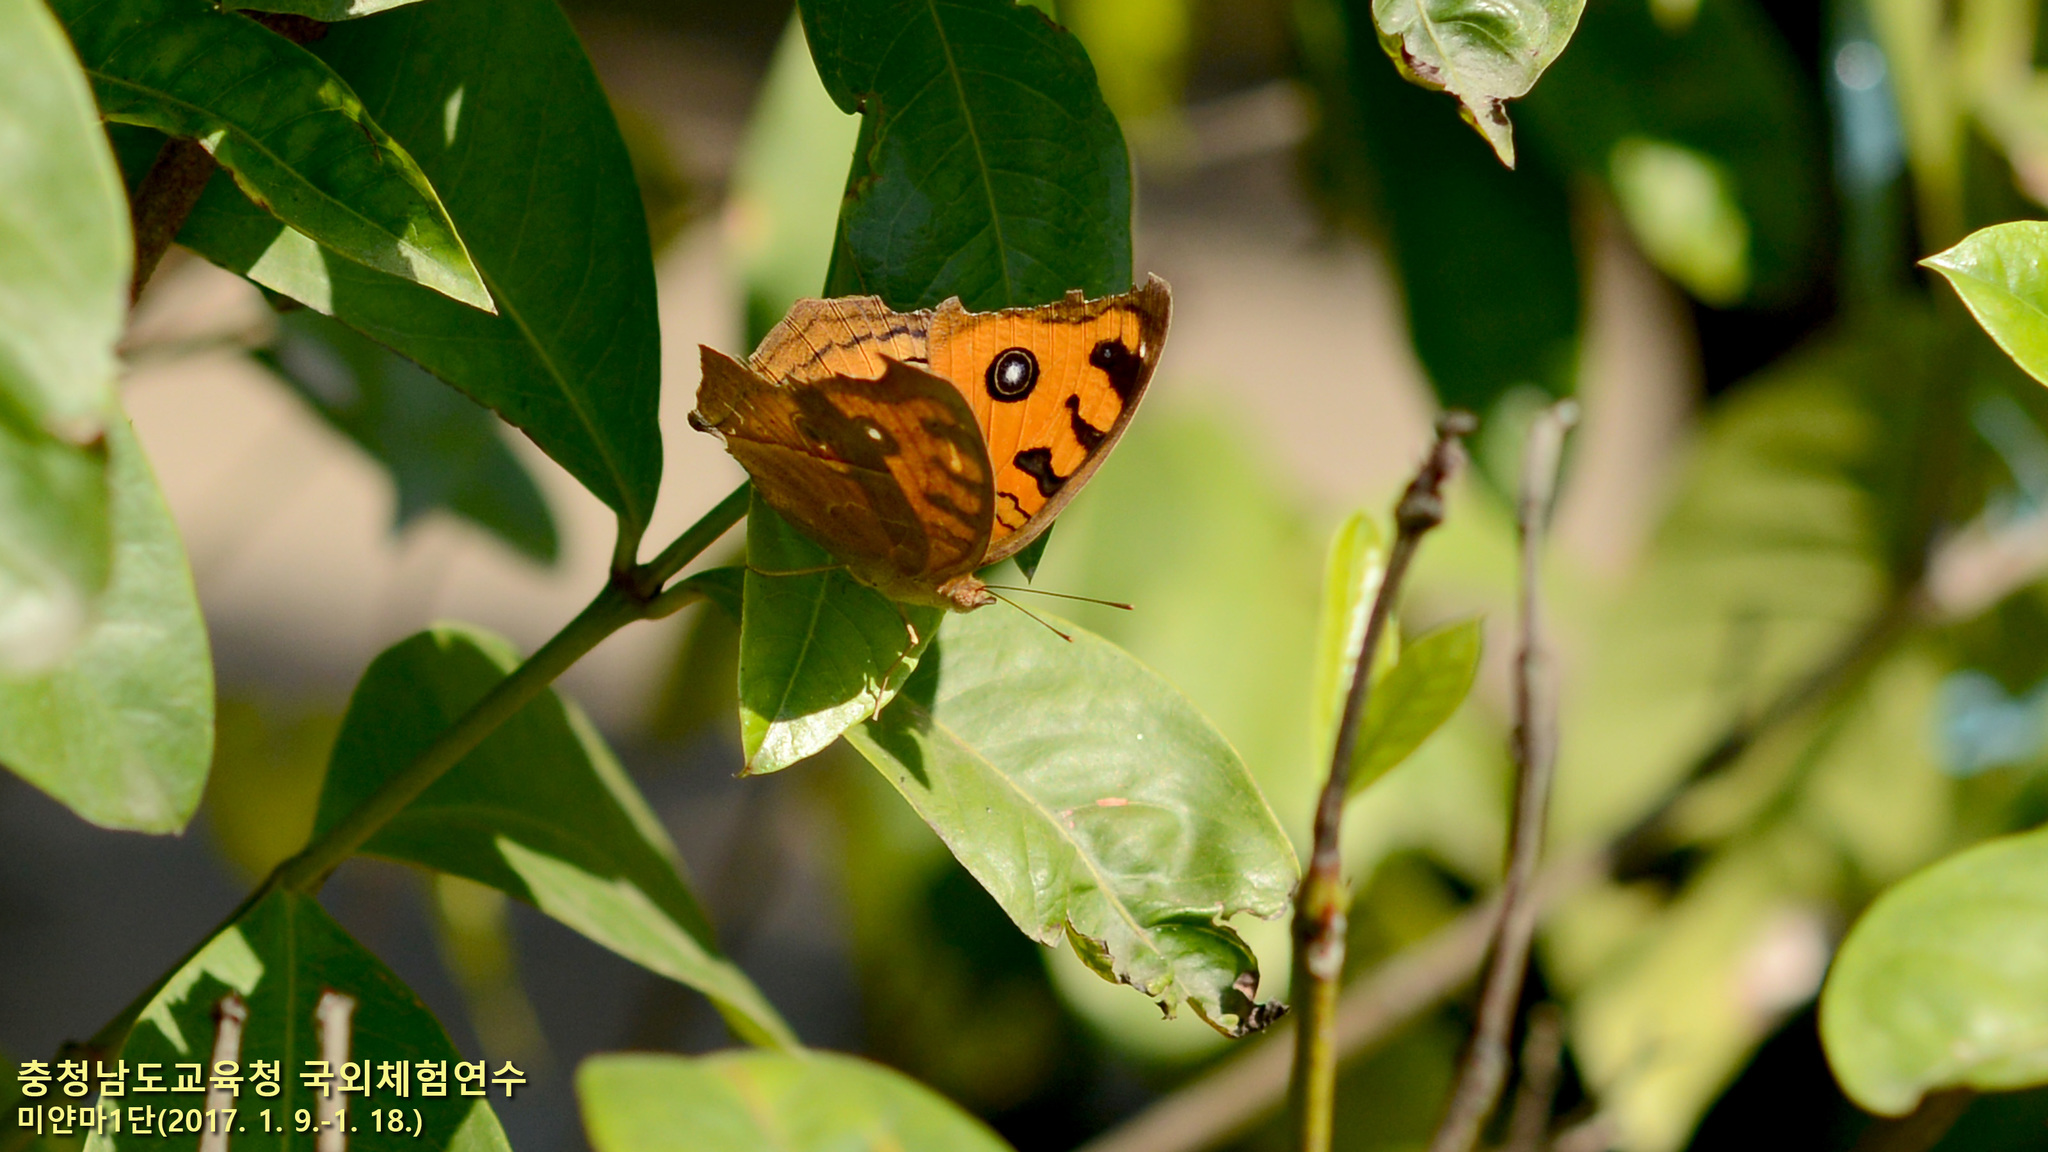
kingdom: Animalia
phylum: Arthropoda
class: Insecta
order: Lepidoptera
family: Nymphalidae
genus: Junonia
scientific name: Junonia almana
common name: Peacock pansy
